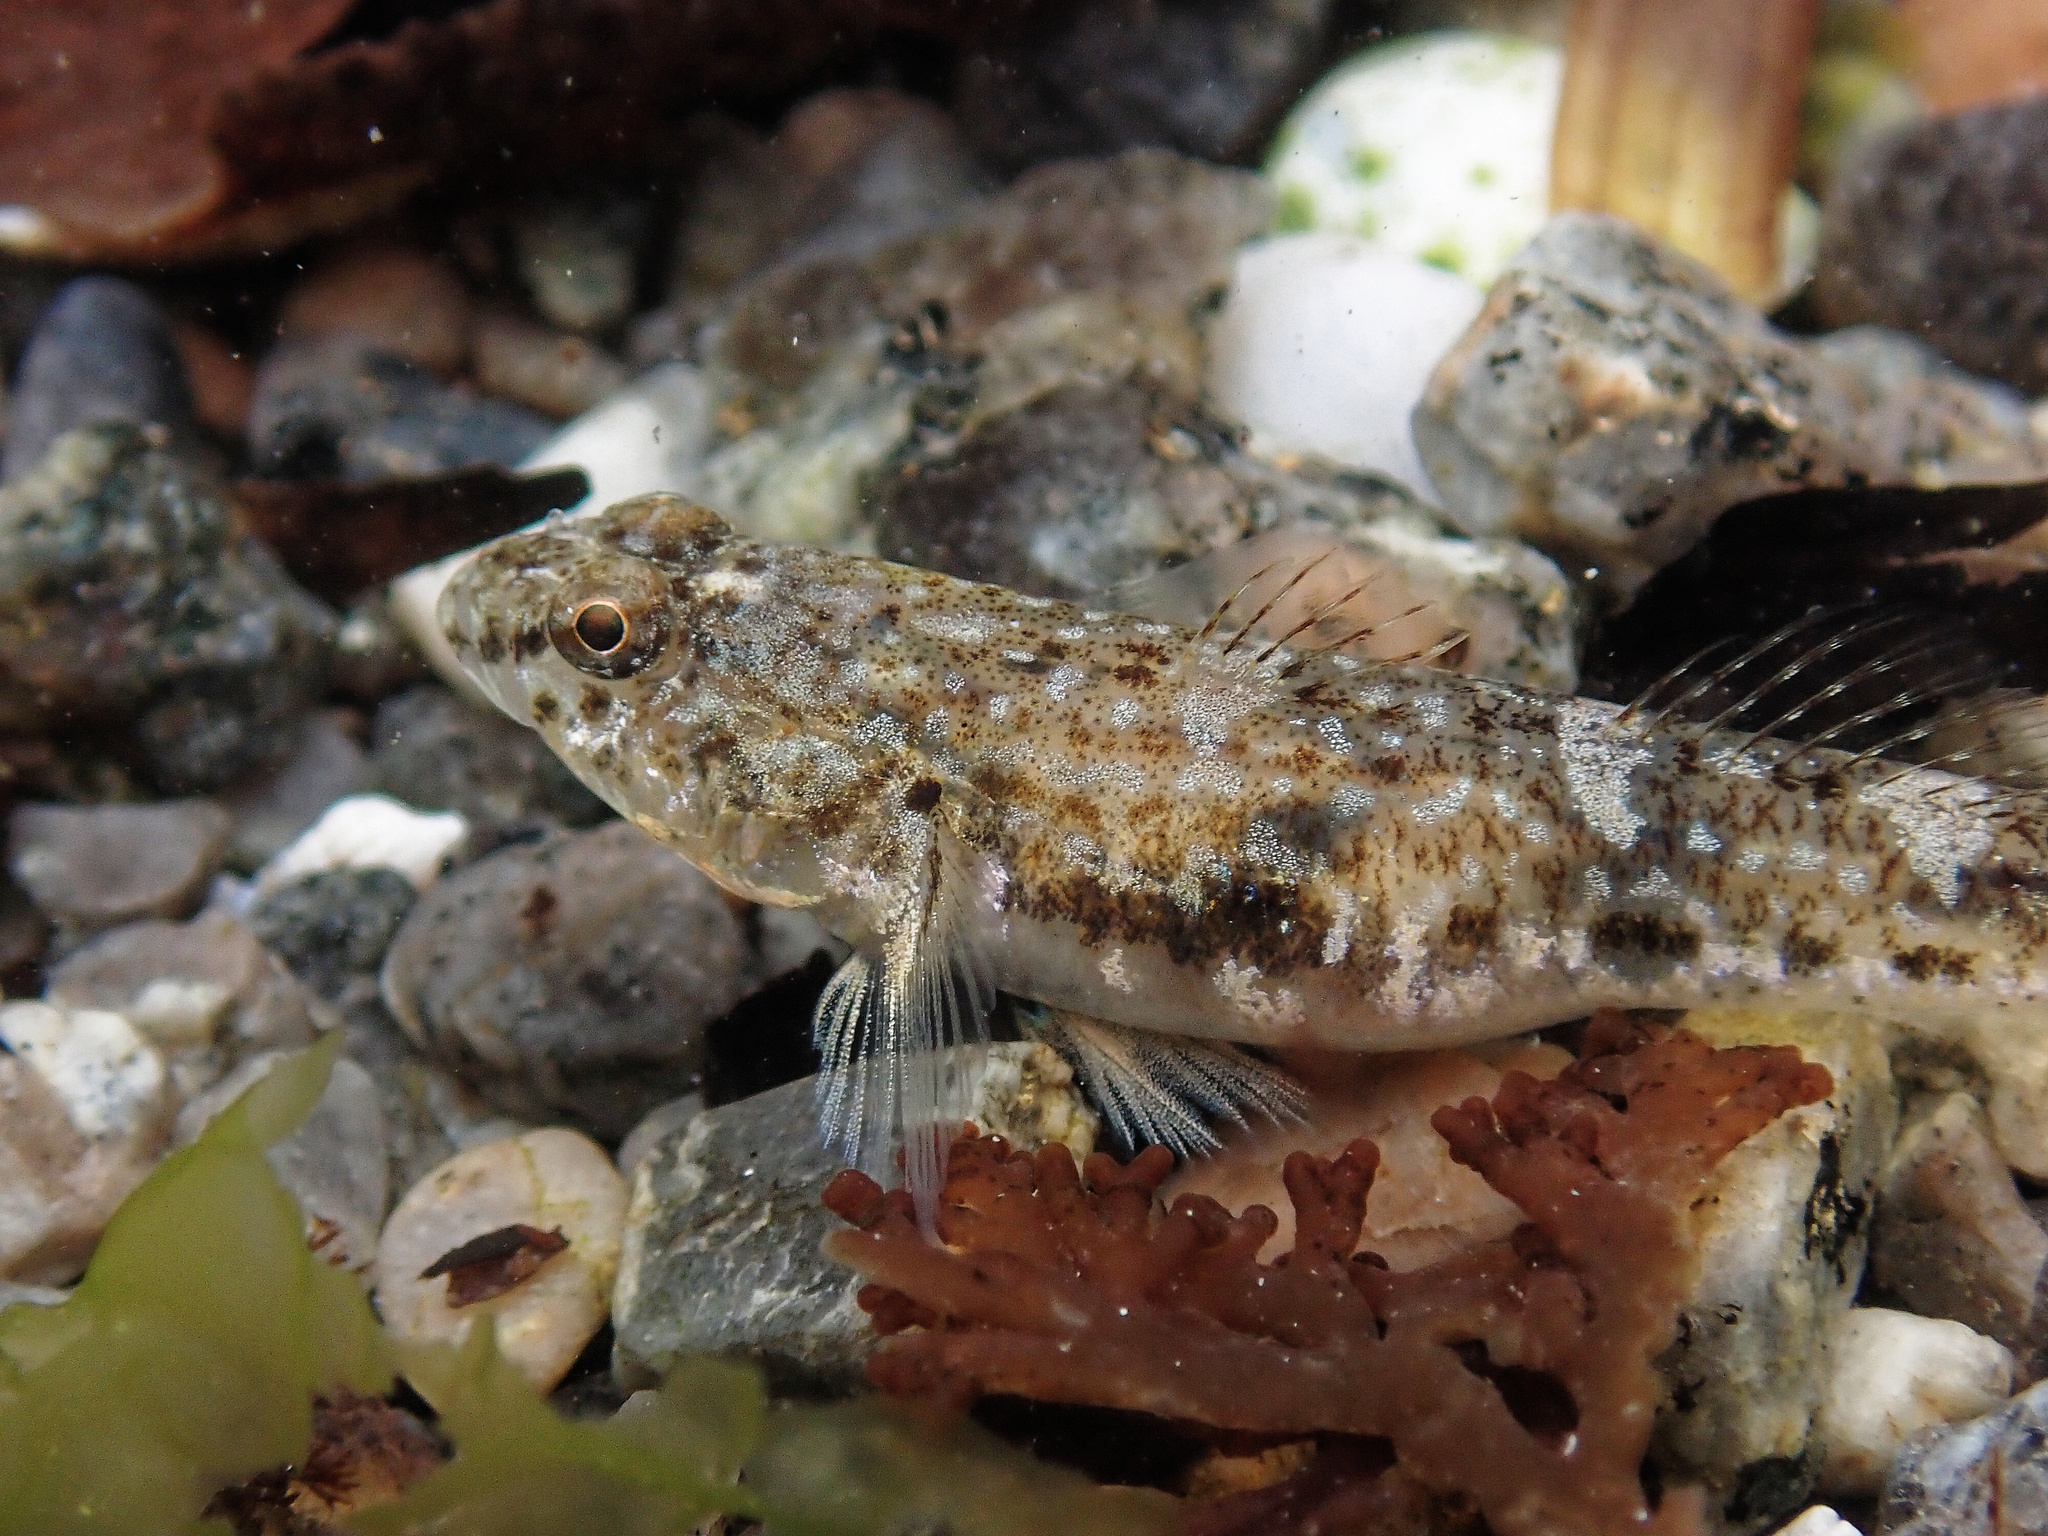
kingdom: Animalia
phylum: Chordata
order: Perciformes
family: Gobiidae
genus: Pomatoschistus
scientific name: Pomatoschistus microps
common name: Common goby
